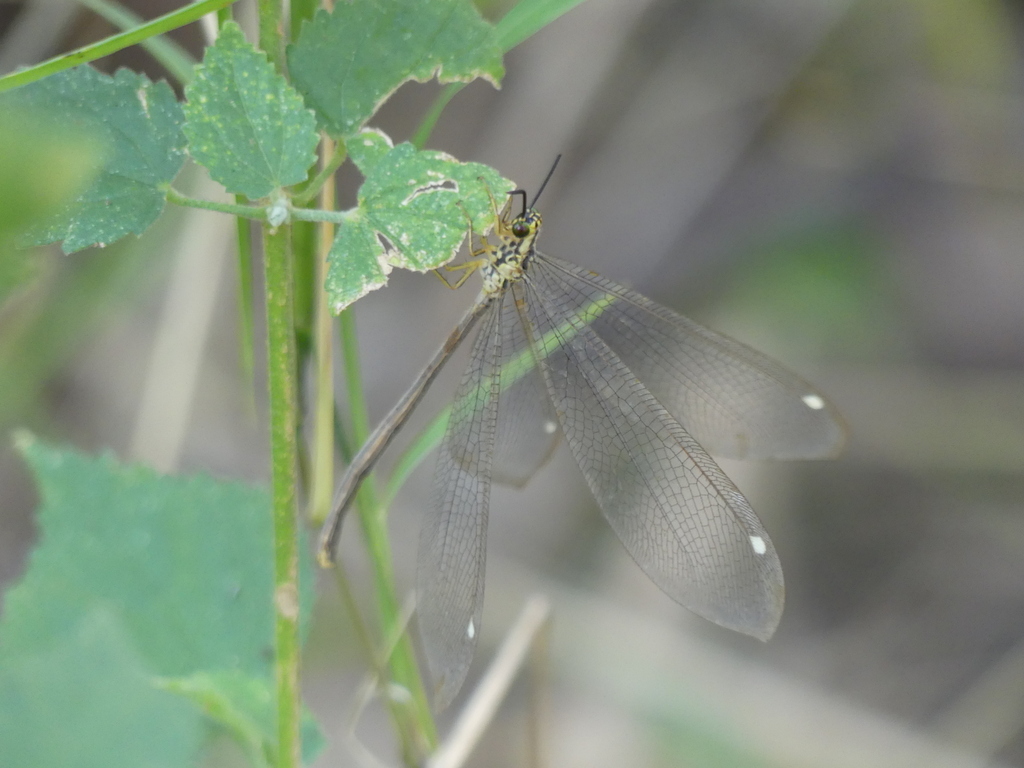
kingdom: Animalia
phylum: Arthropoda
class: Insecta
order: Neuroptera
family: Myrmeleontidae
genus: Hagenomyia
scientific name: Hagenomyia tristis
